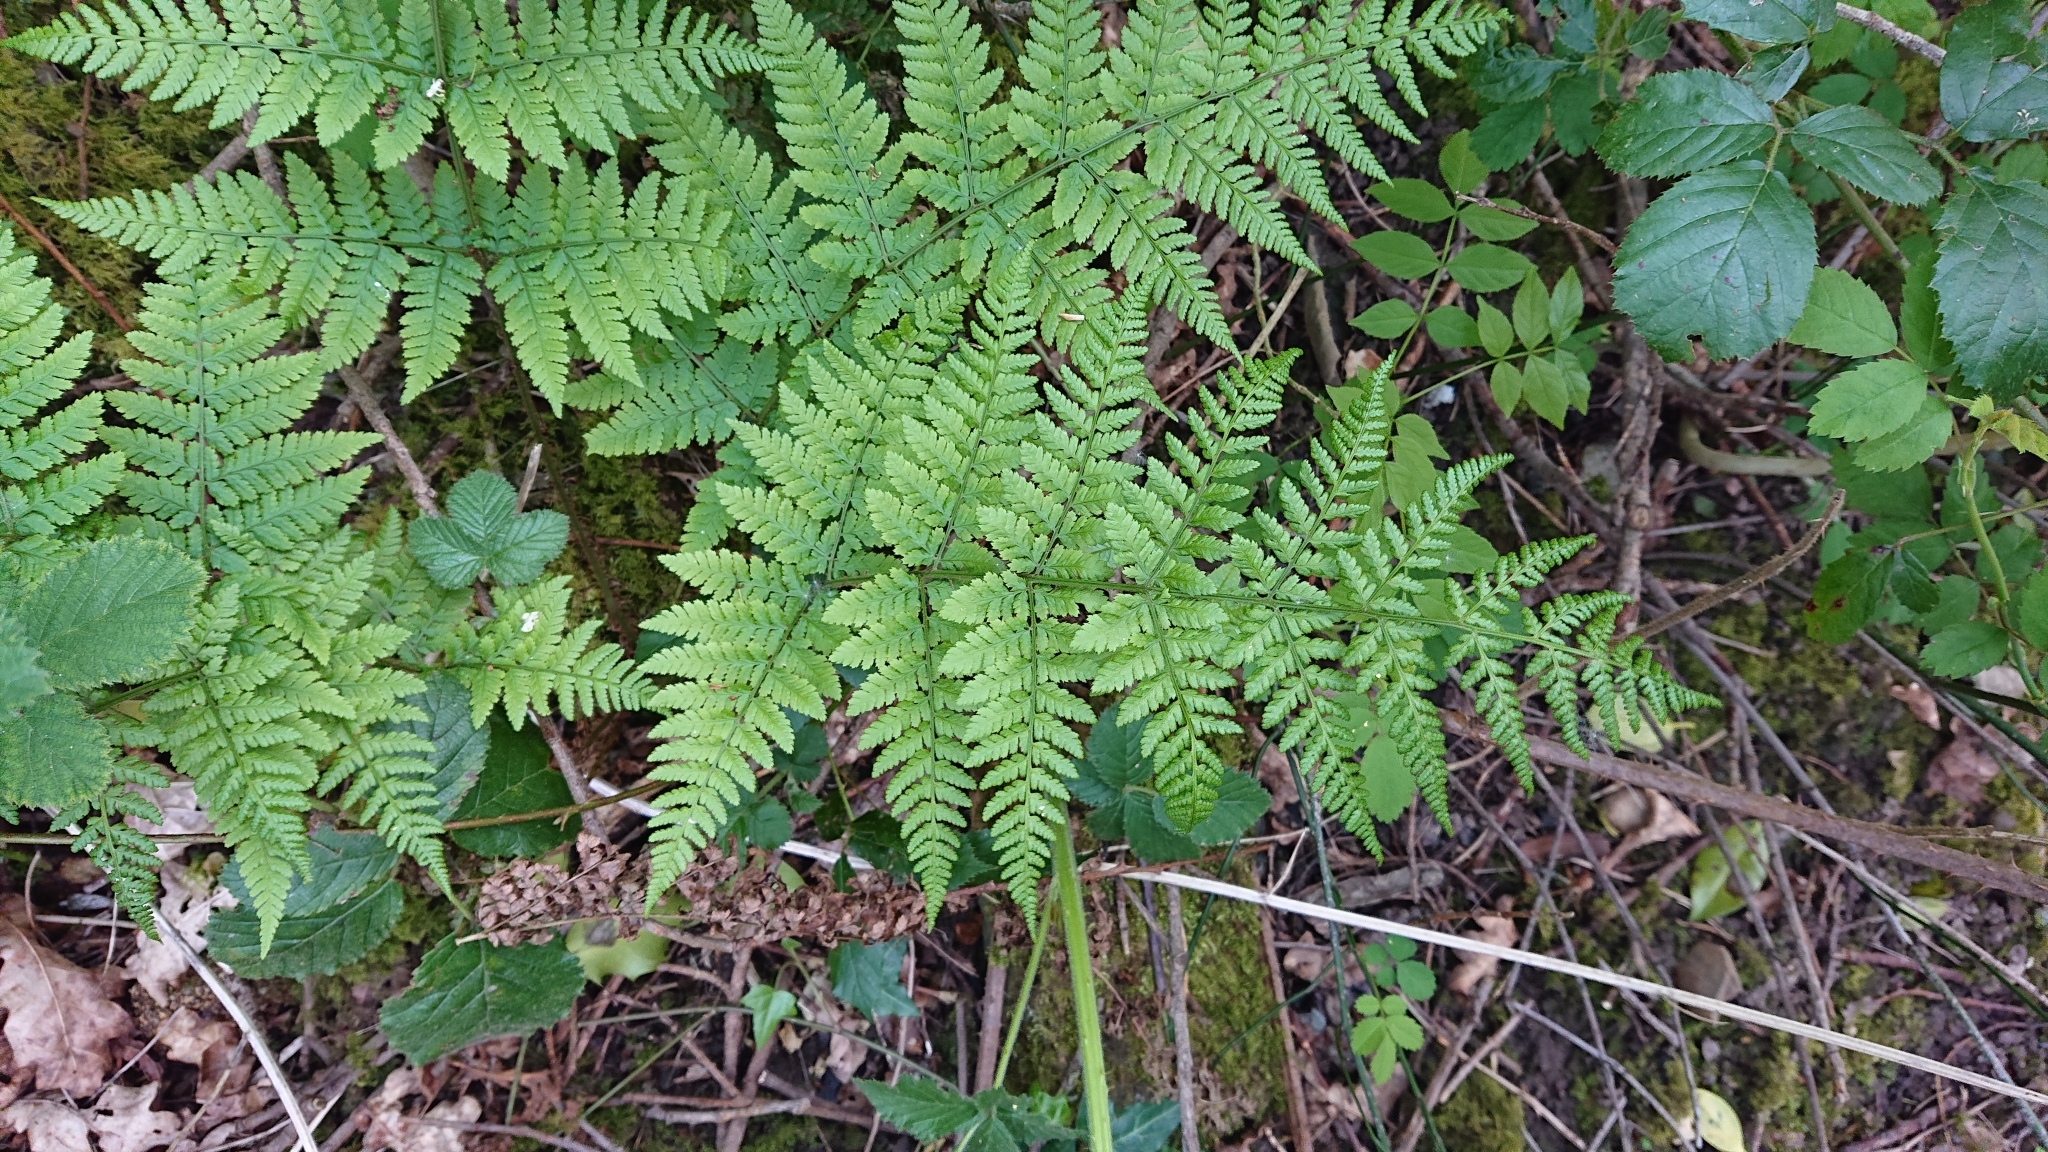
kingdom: Plantae
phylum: Tracheophyta
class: Polypodiopsida
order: Polypodiales
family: Dryopteridaceae
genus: Dryopteris
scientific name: Dryopteris dilatata
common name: Broad buckler-fern
